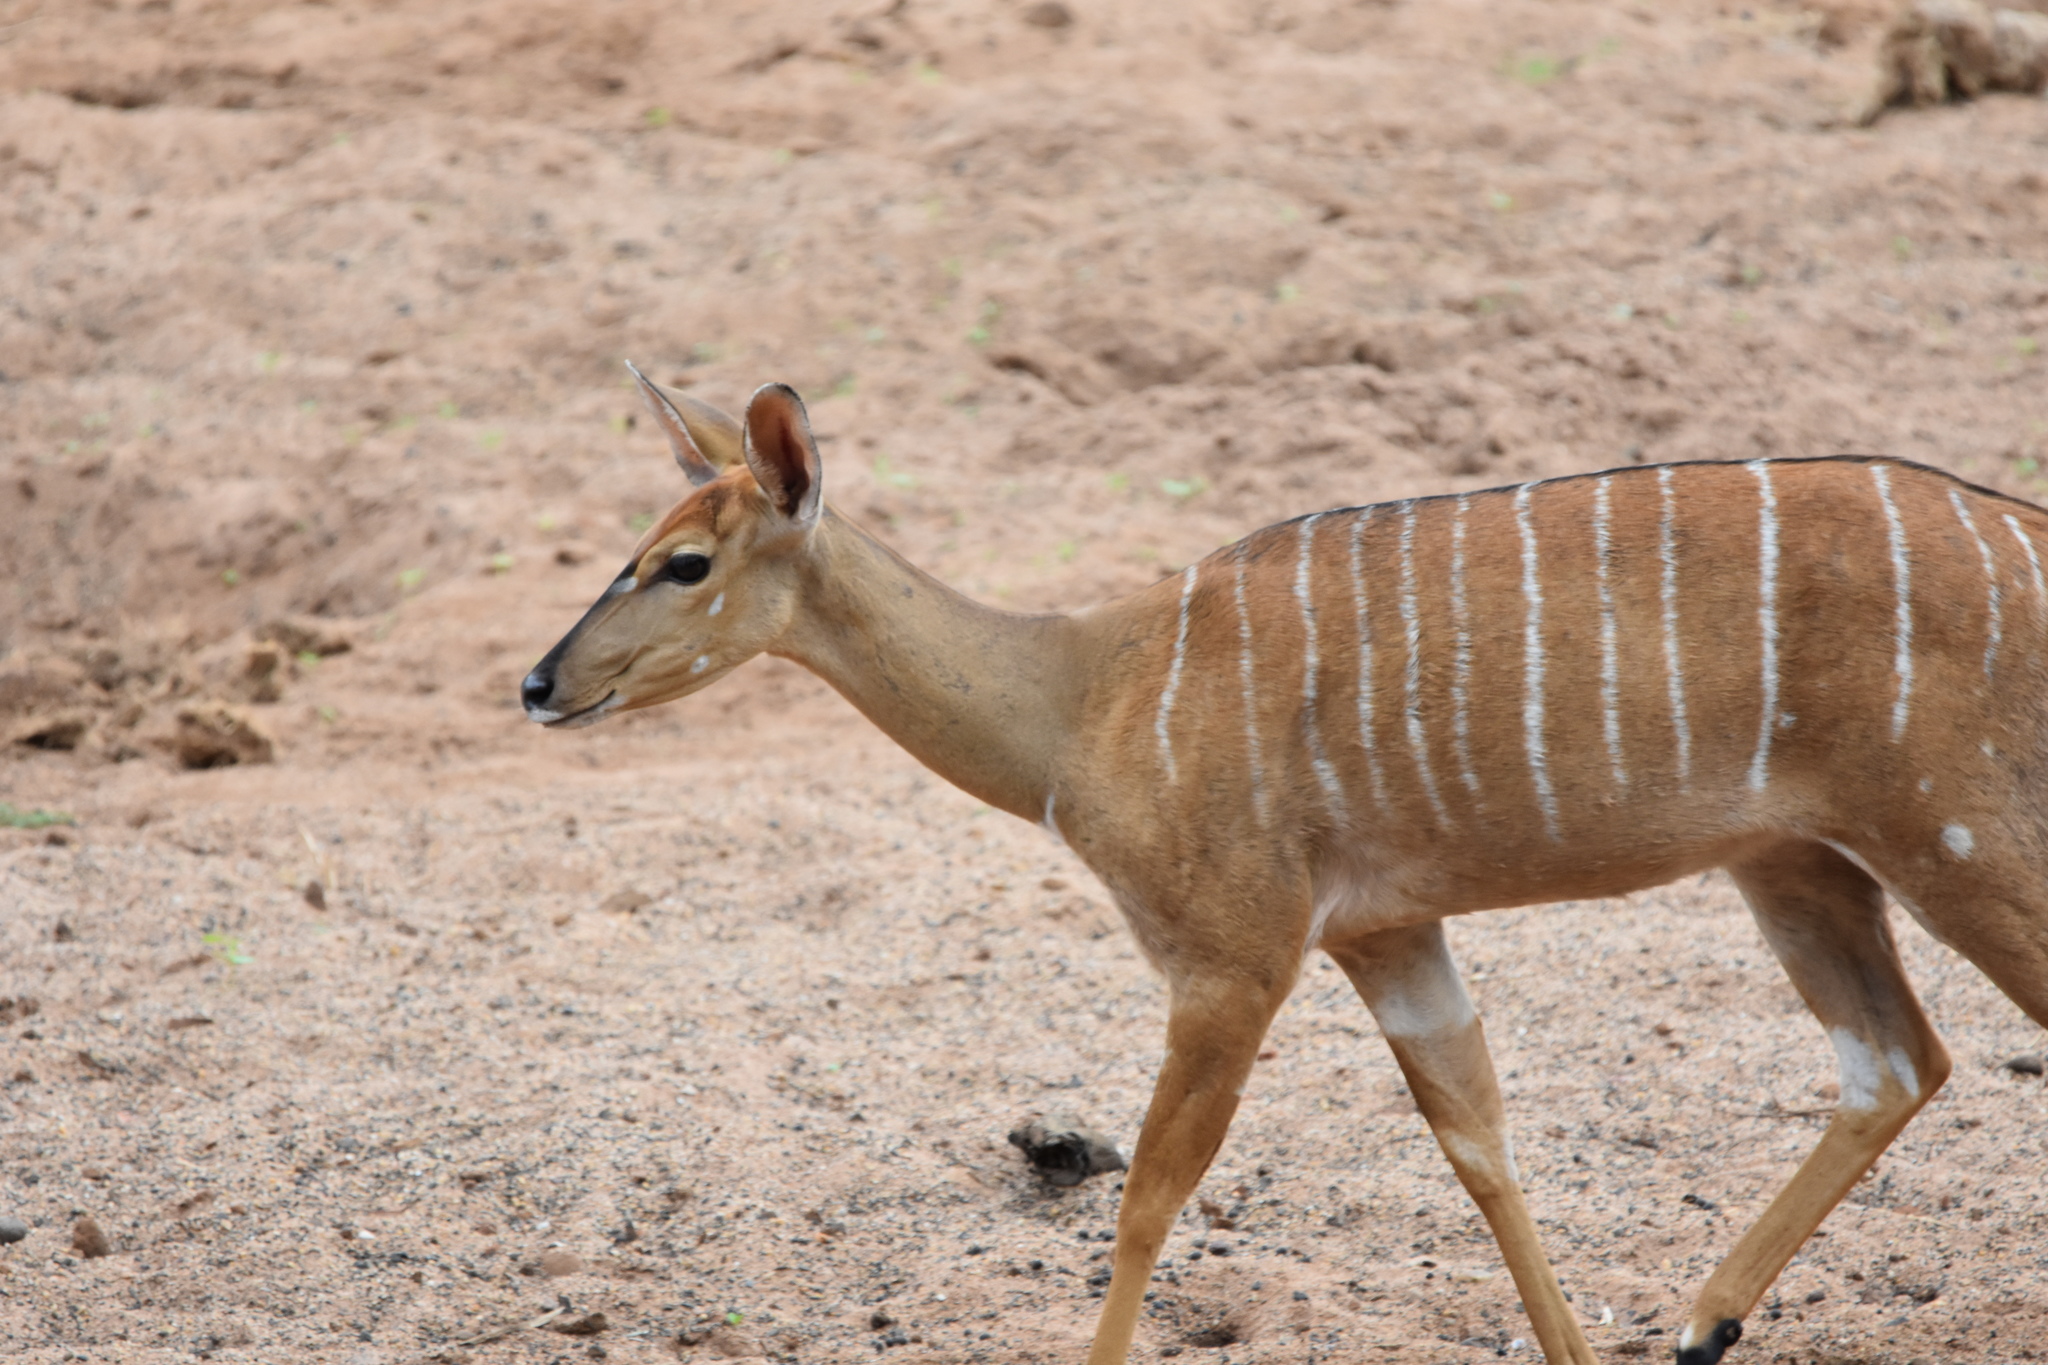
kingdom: Animalia
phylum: Chordata
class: Mammalia
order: Artiodactyla
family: Bovidae
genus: Tragelaphus
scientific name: Tragelaphus angasii
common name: Nyala
